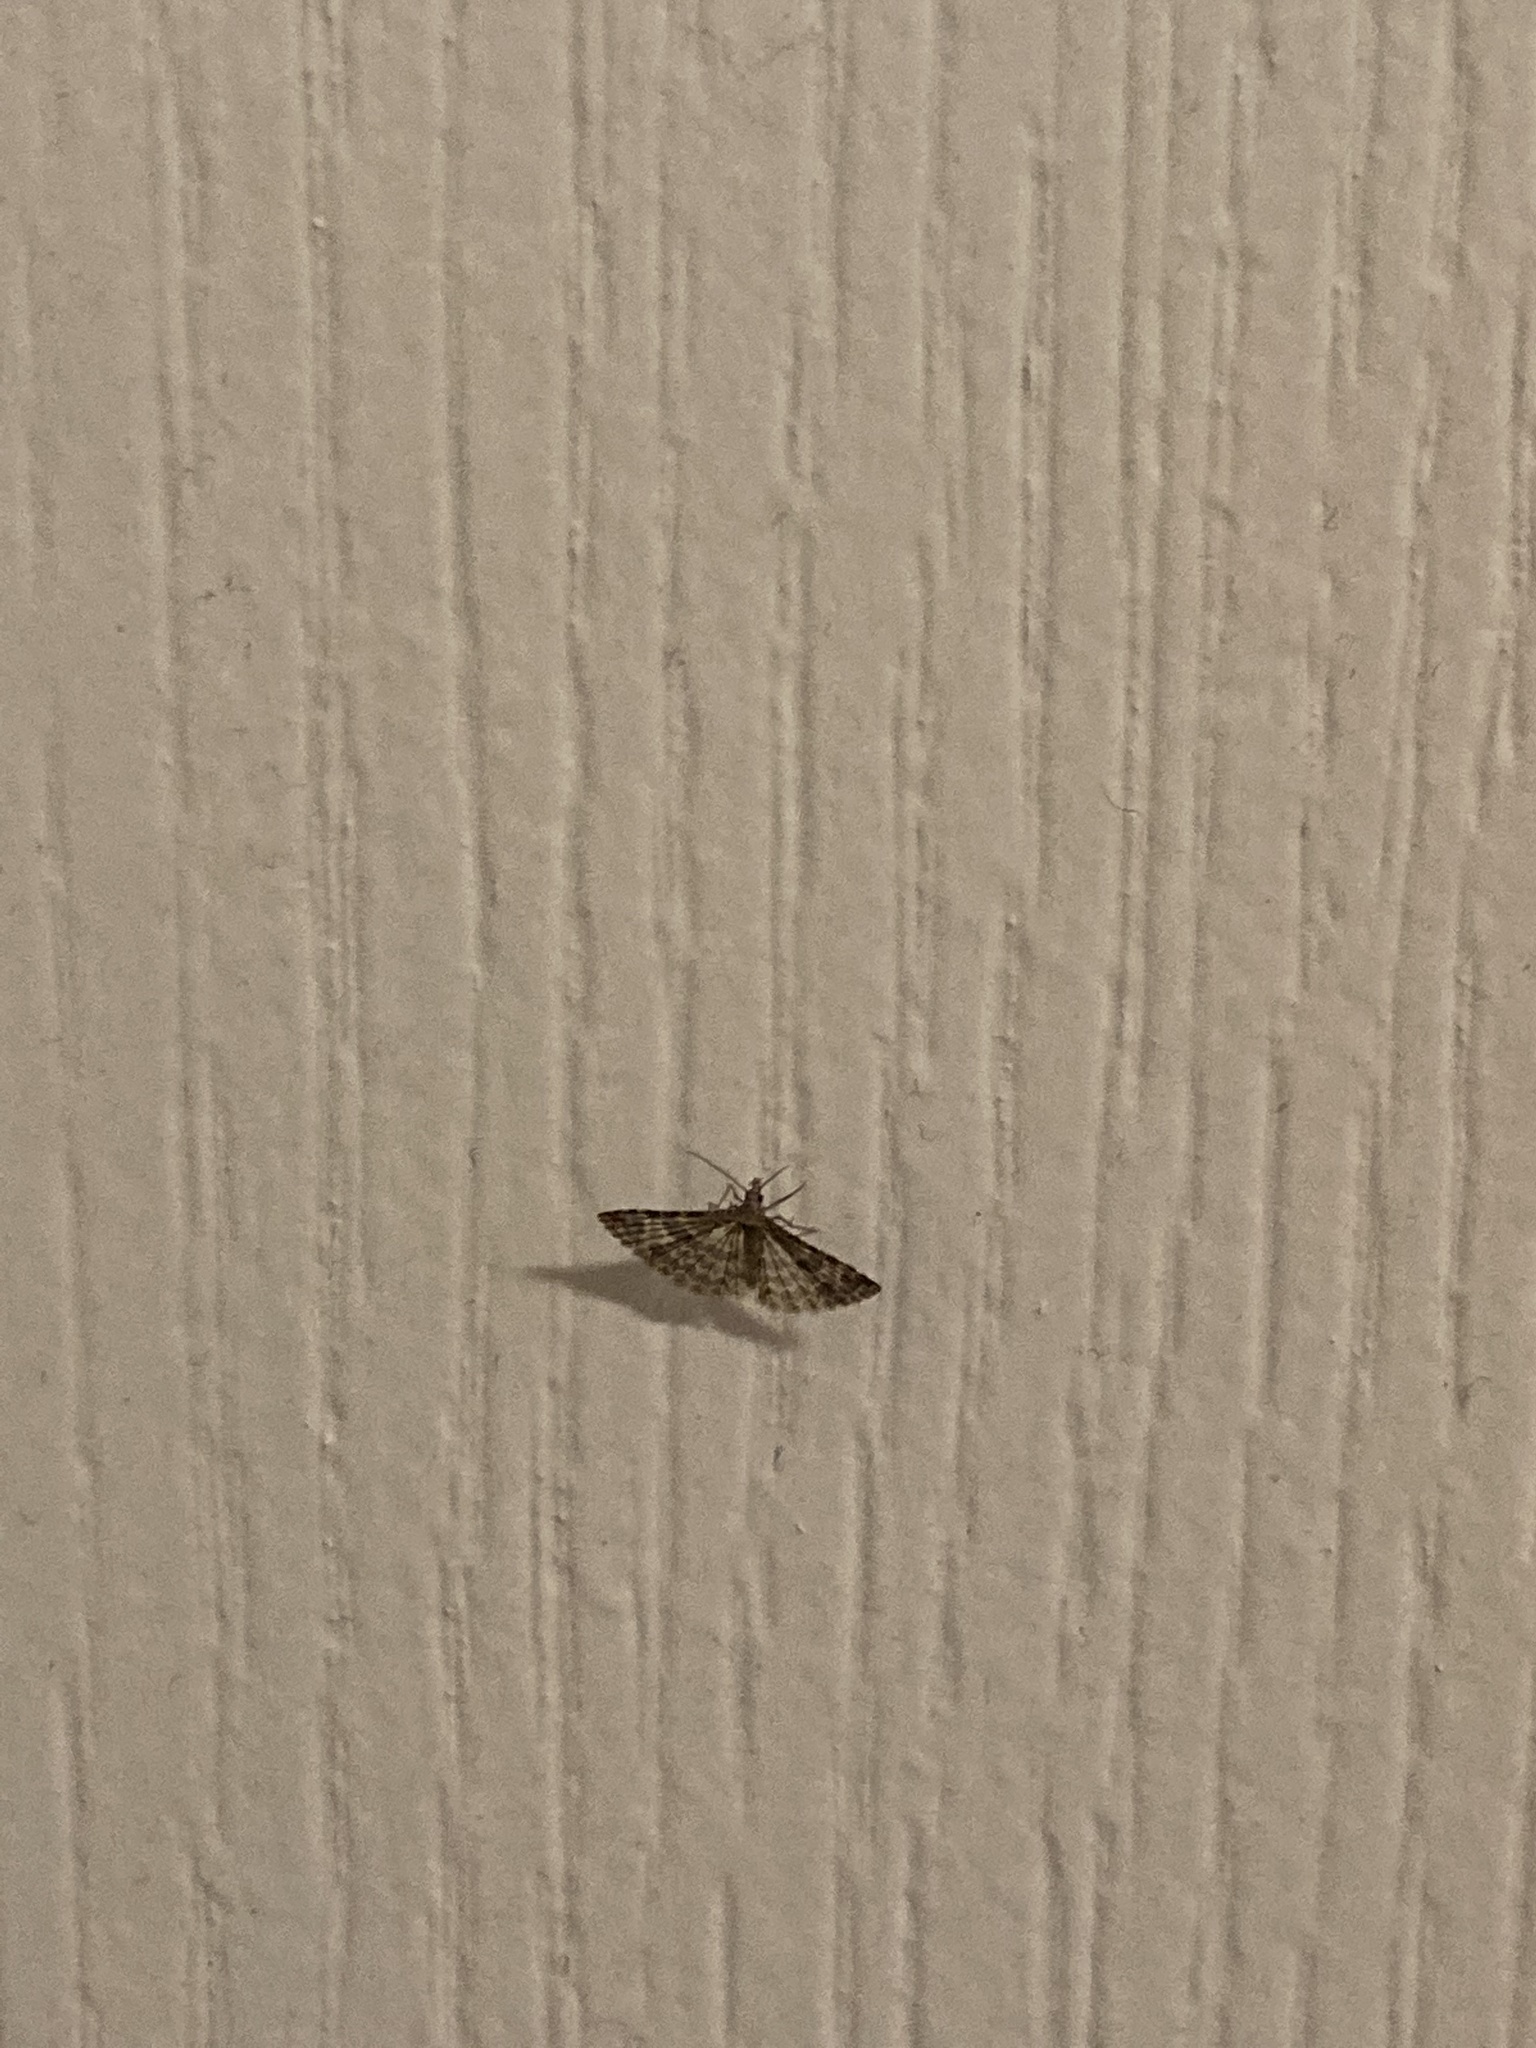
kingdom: Animalia
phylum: Arthropoda
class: Insecta
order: Lepidoptera
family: Alucitidae
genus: Alucita
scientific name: Alucita montana
